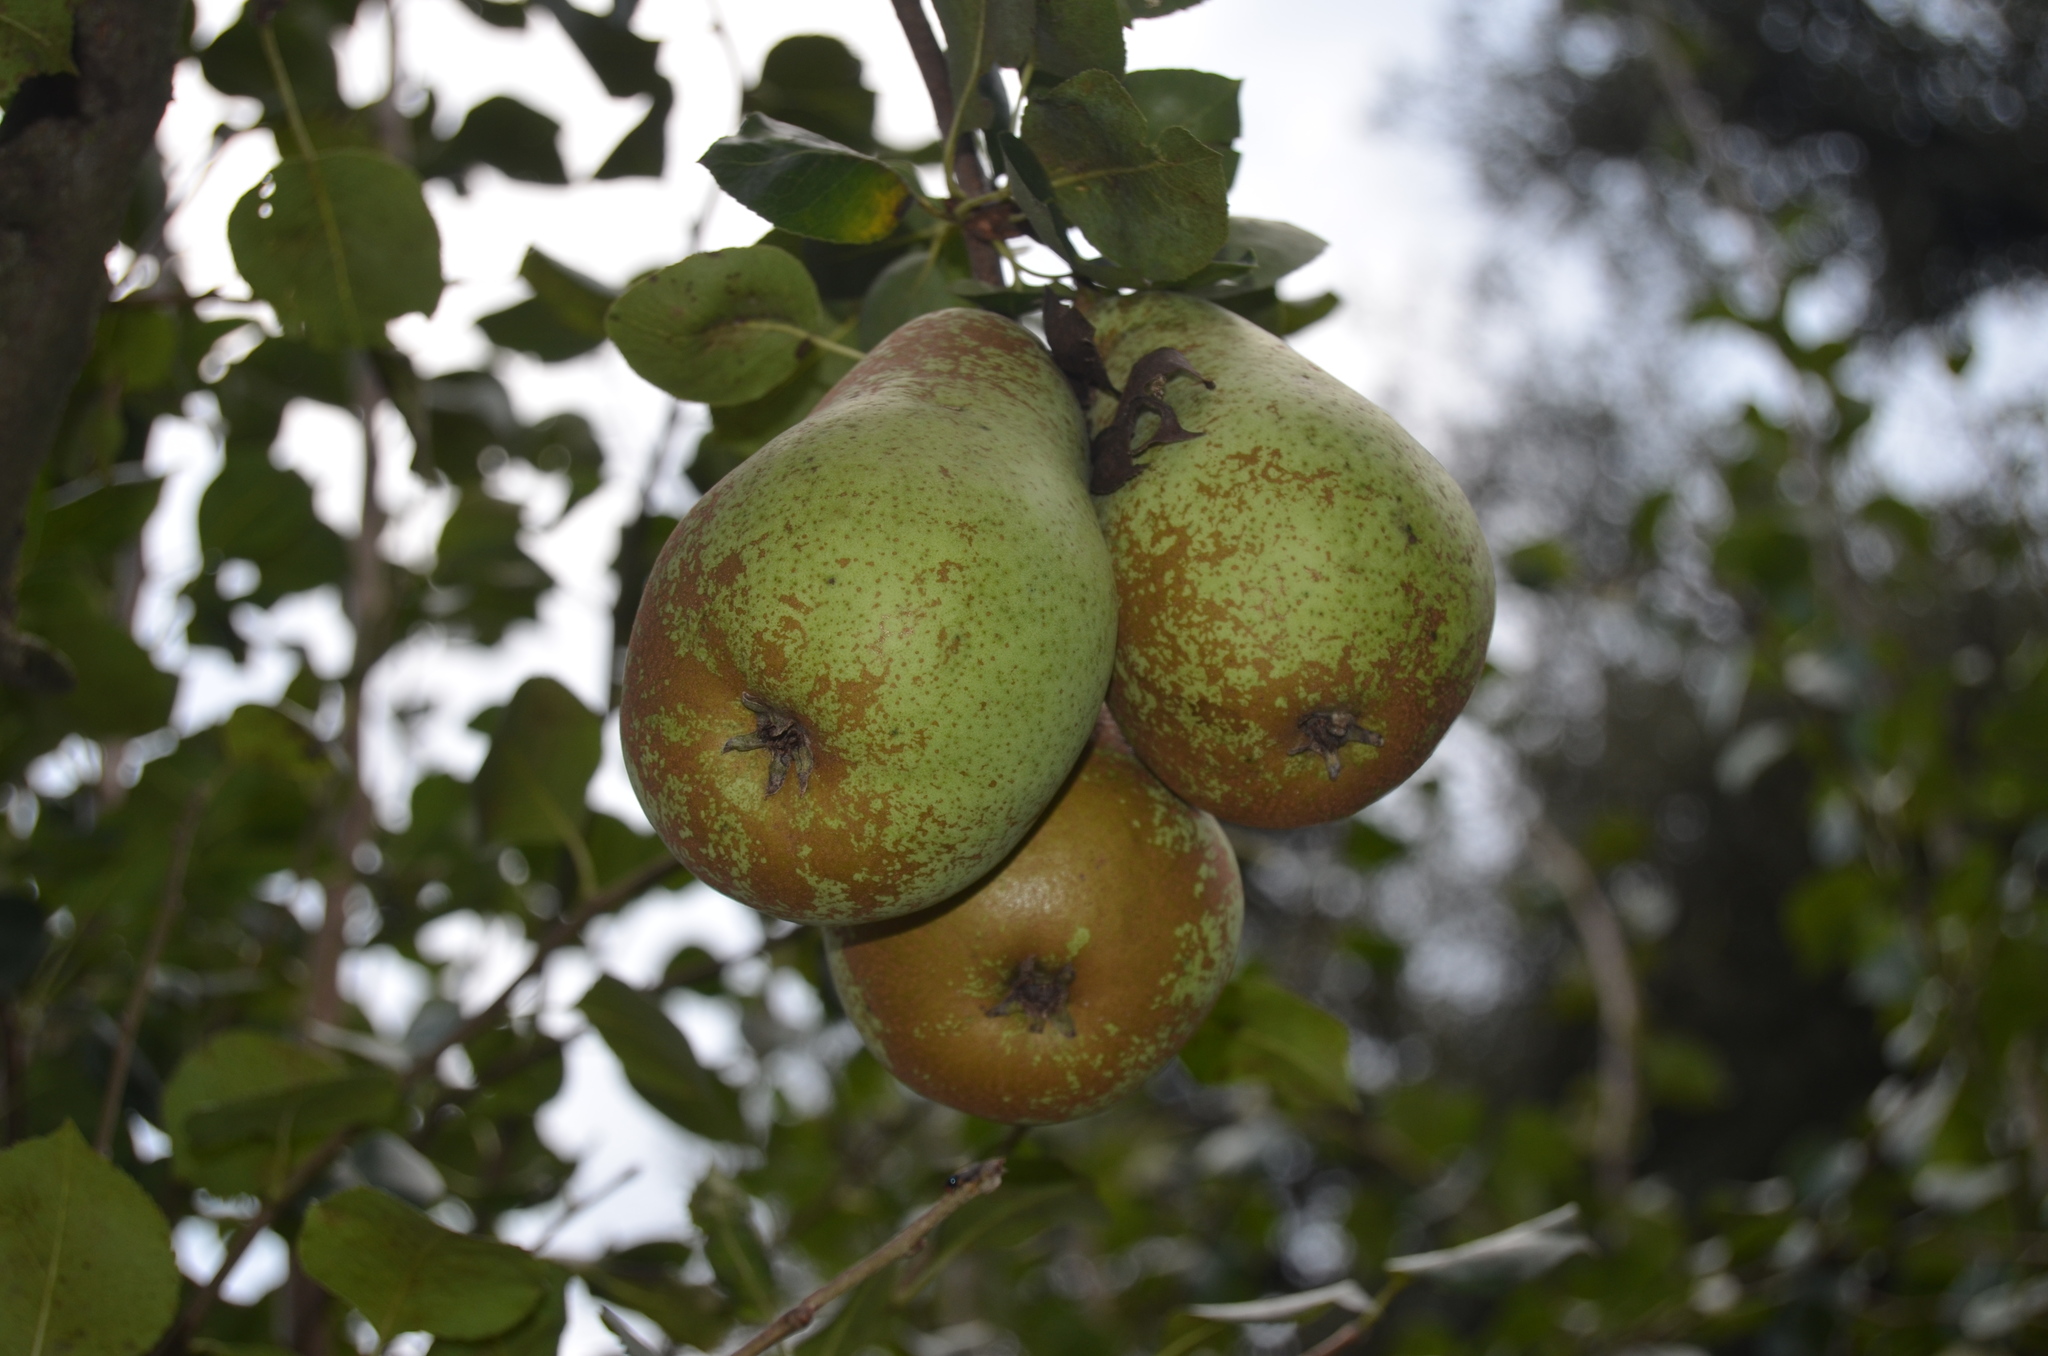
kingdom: Plantae
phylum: Tracheophyta
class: Magnoliopsida
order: Rosales
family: Rosaceae
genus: Pyrus
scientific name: Pyrus communis
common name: Pear
